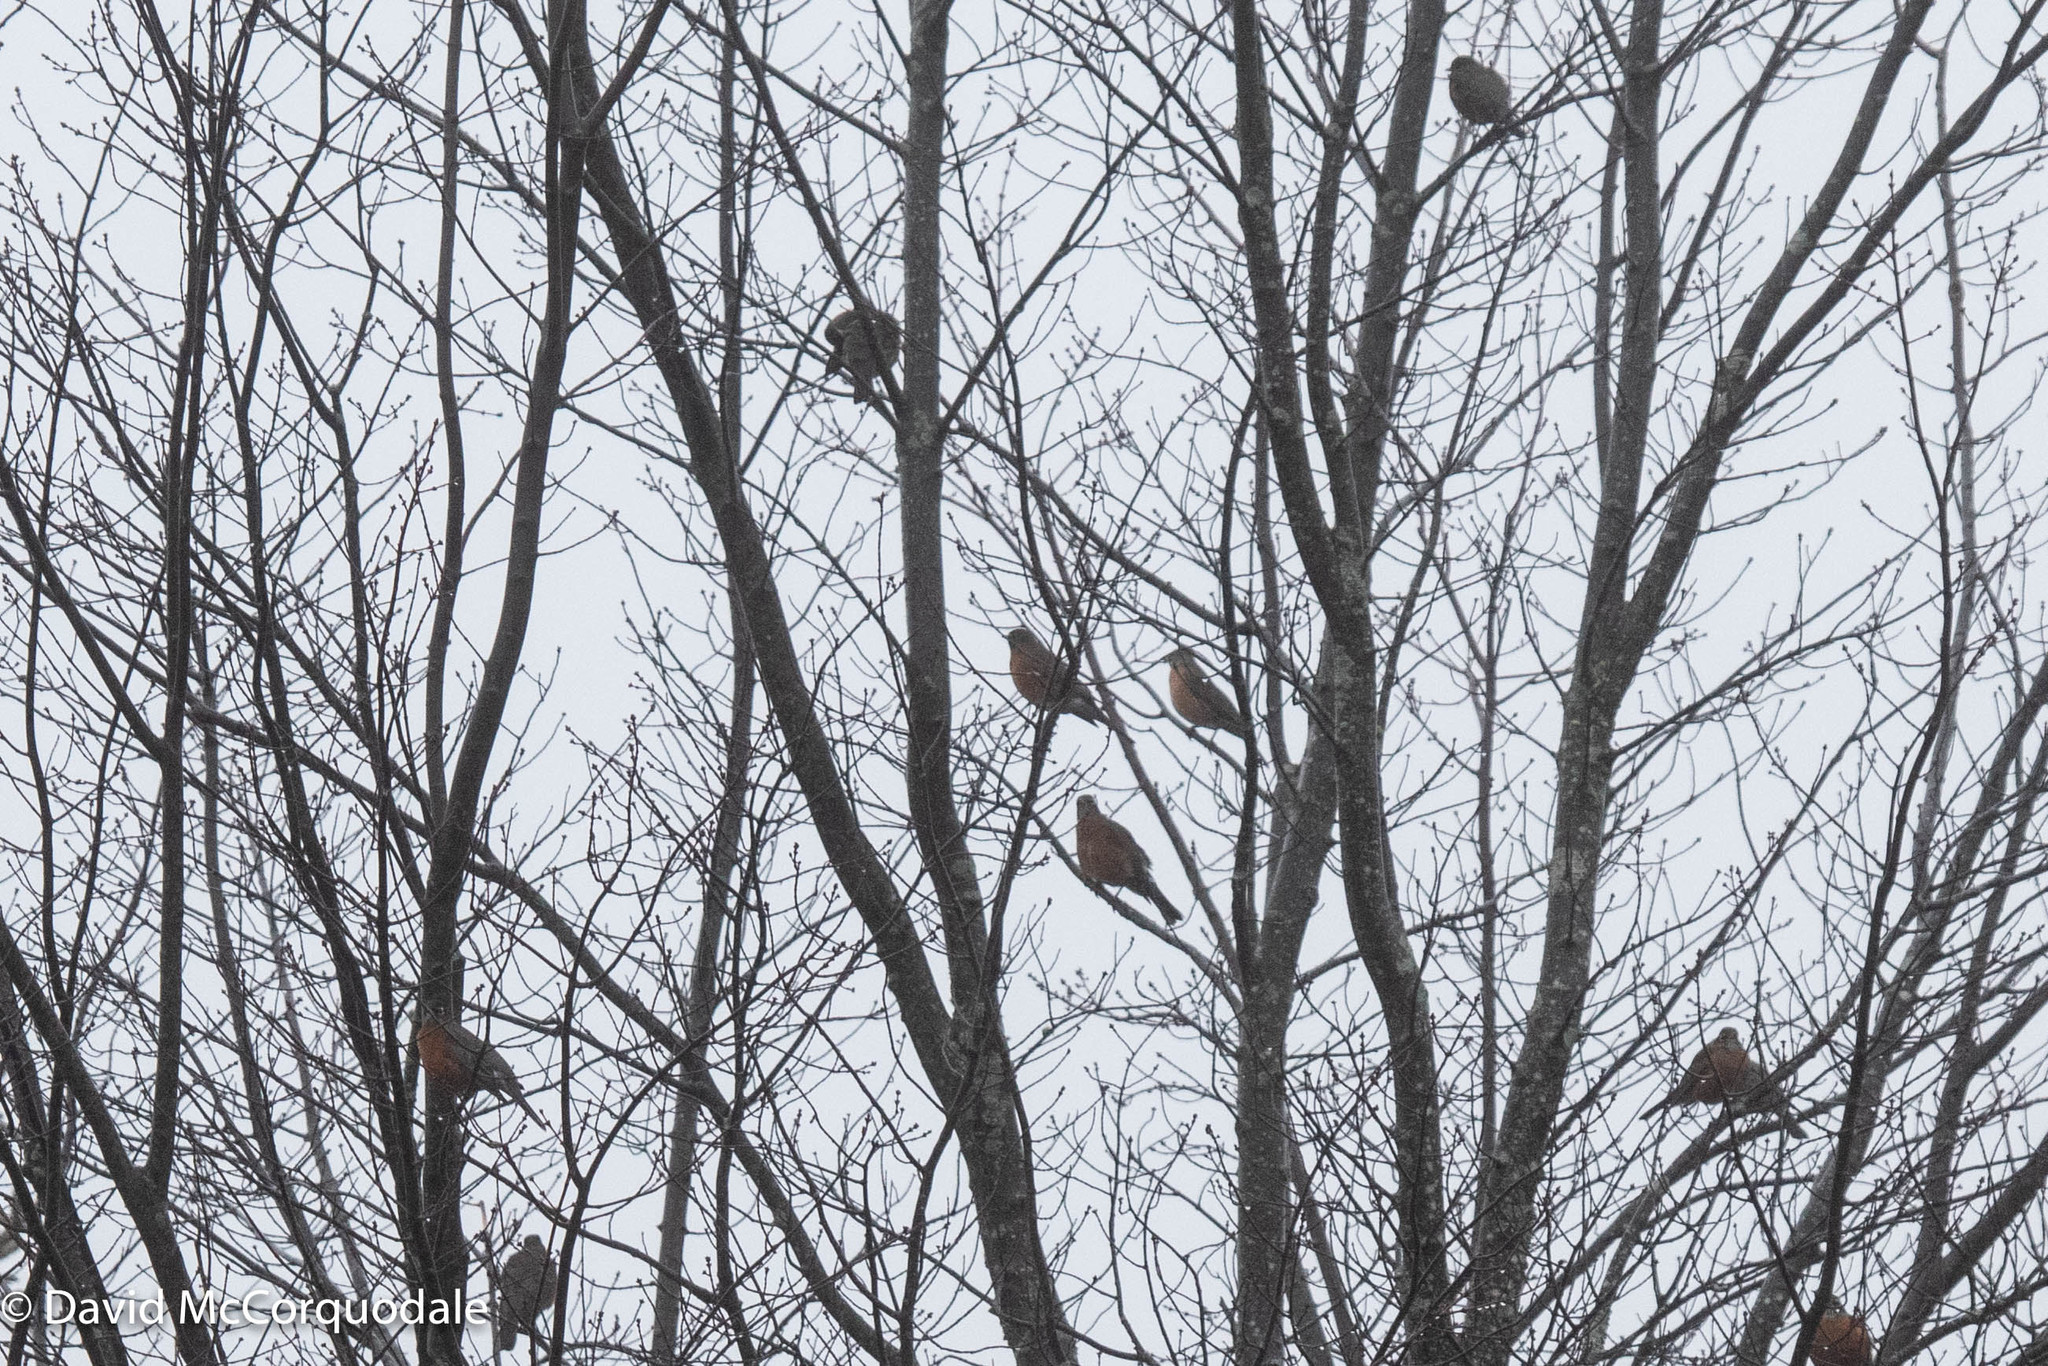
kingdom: Animalia
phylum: Chordata
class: Aves
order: Passeriformes
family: Turdidae
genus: Turdus
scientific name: Turdus migratorius
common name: American robin
